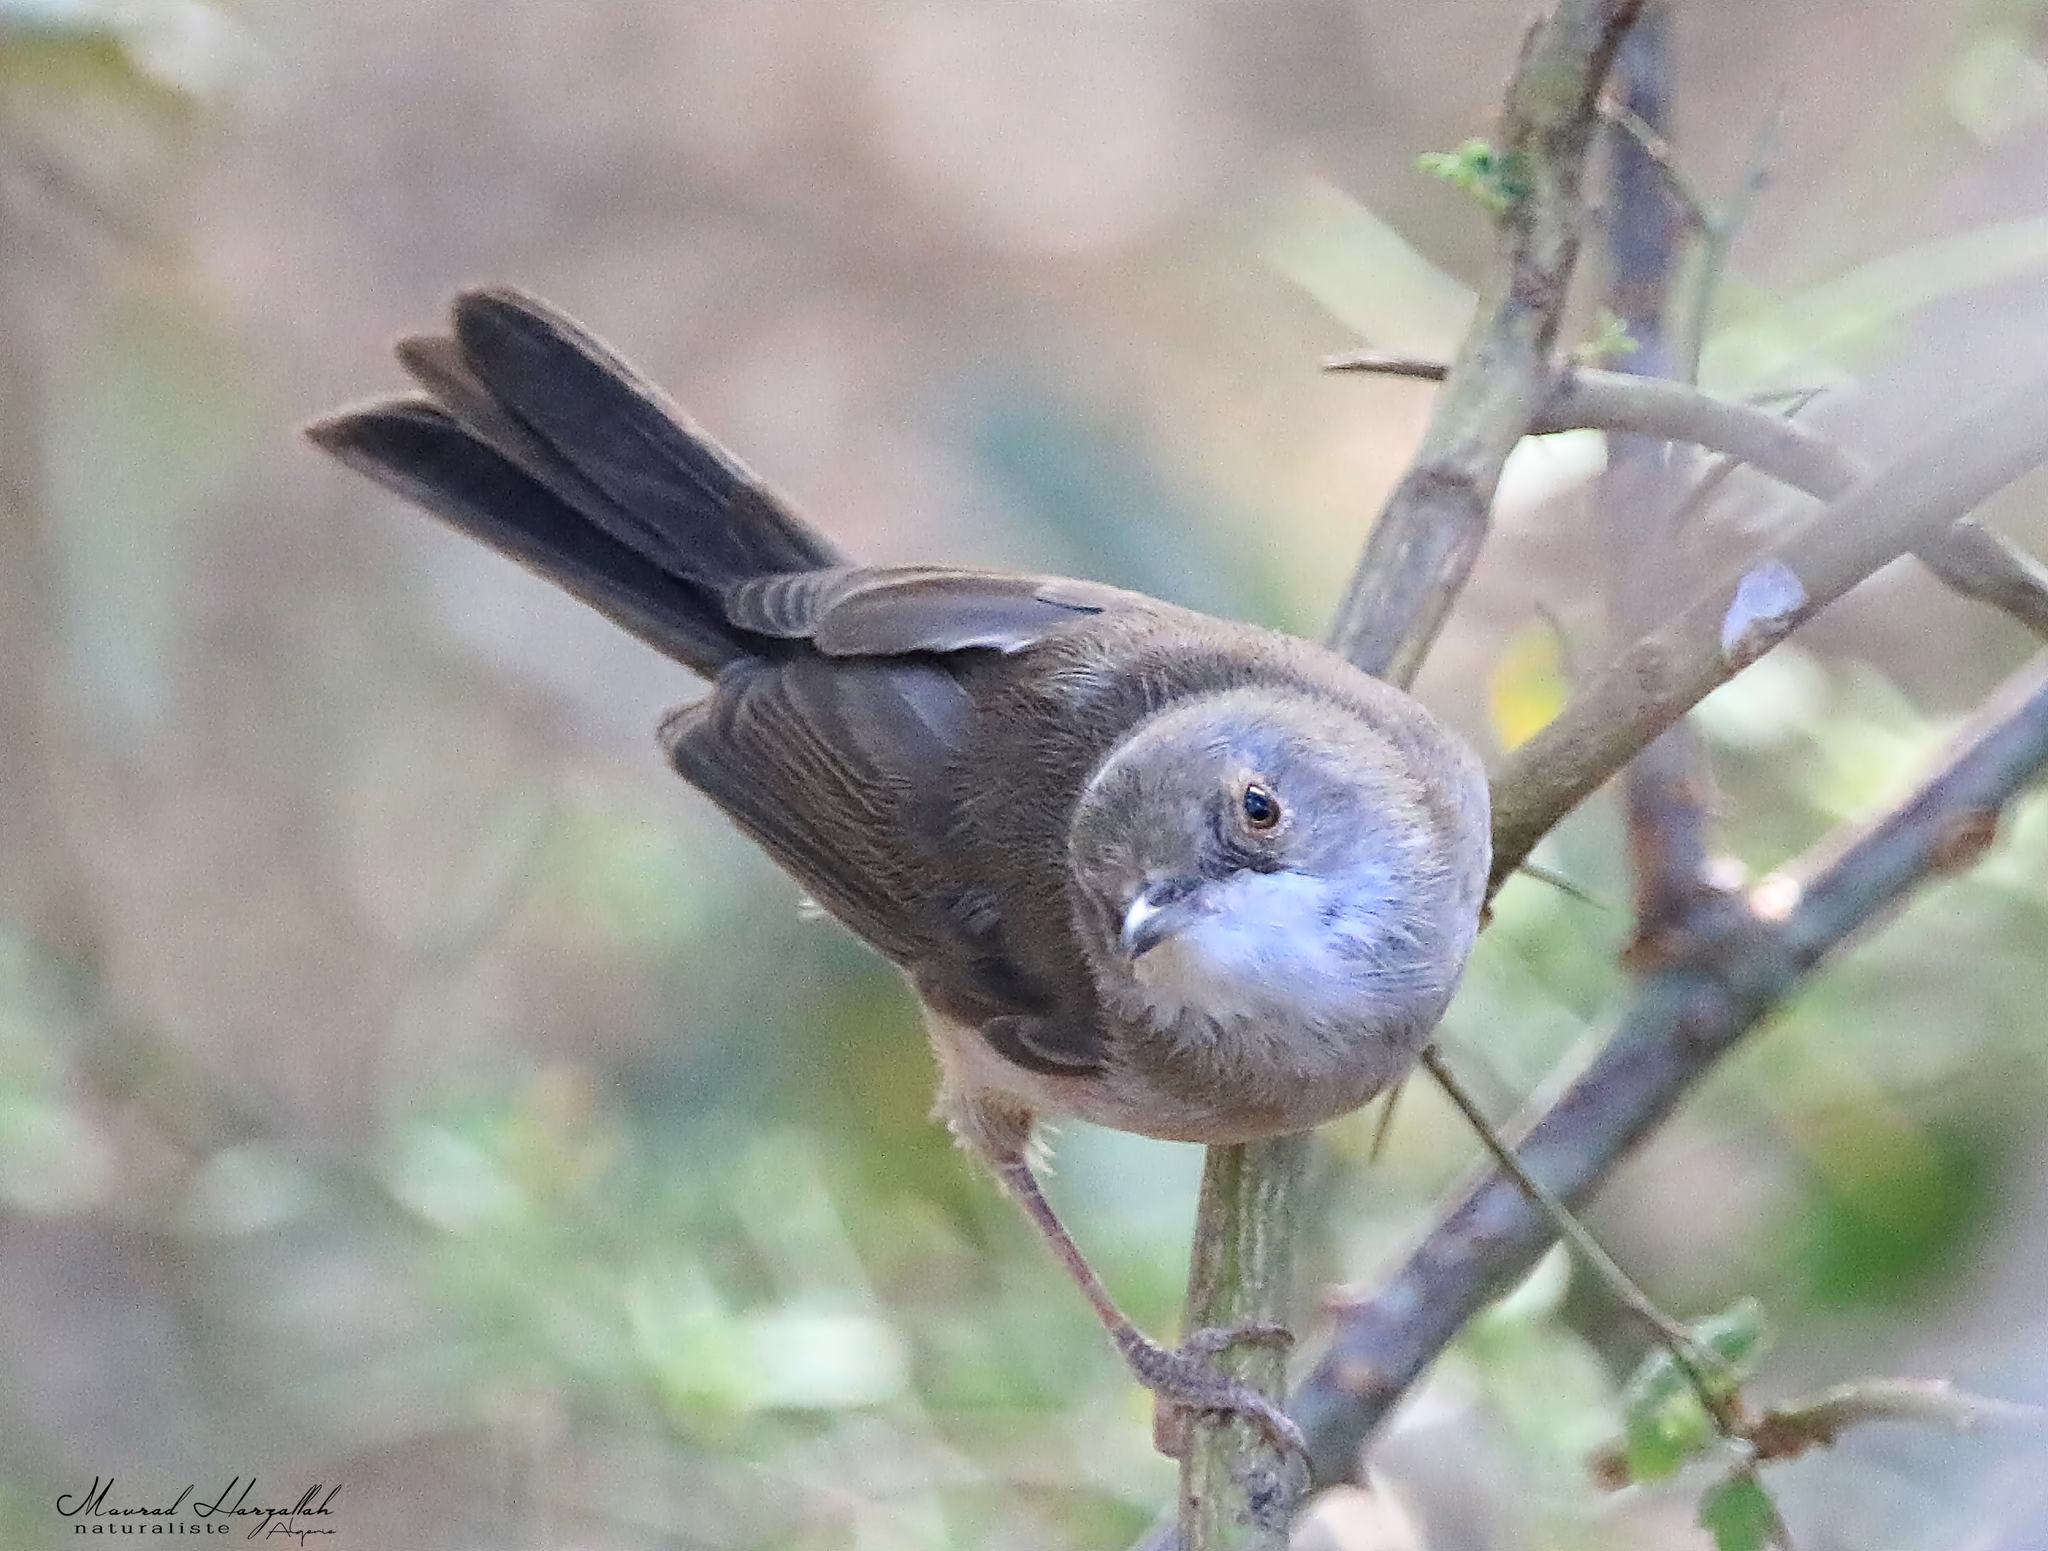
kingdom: Animalia
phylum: Chordata
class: Aves
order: Passeriformes
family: Sylviidae
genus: Curruca
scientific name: Curruca melanocephala
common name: Sardinian warbler
